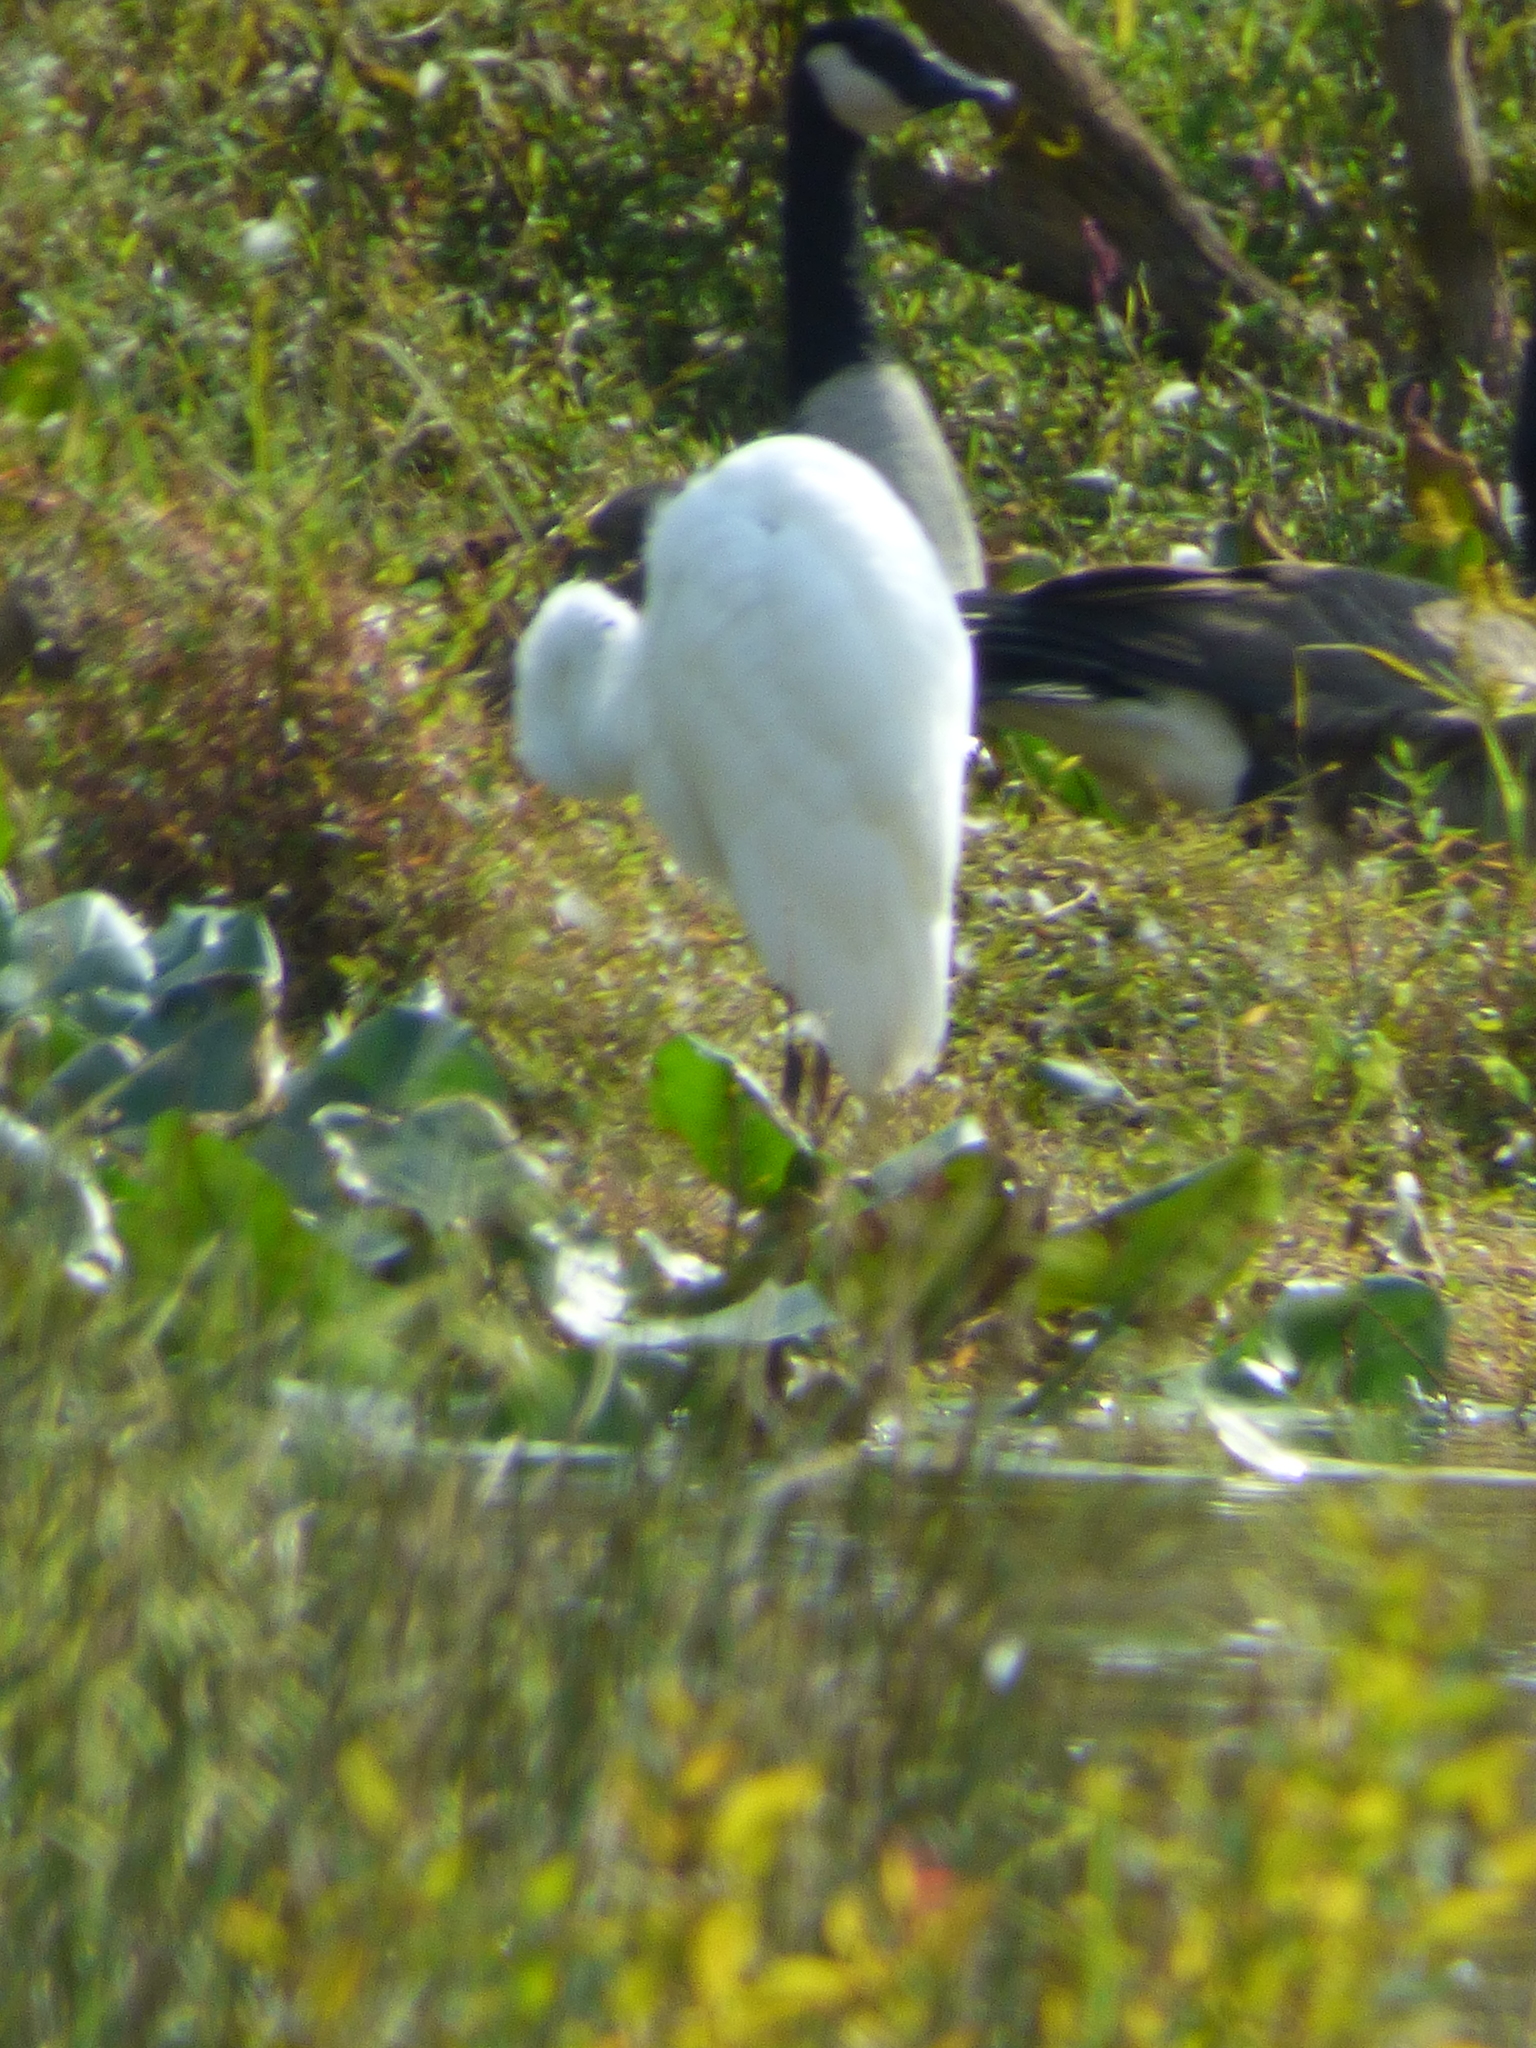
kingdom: Animalia
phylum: Chordata
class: Aves
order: Pelecaniformes
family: Ardeidae
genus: Ardea
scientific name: Ardea alba
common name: Great egret
